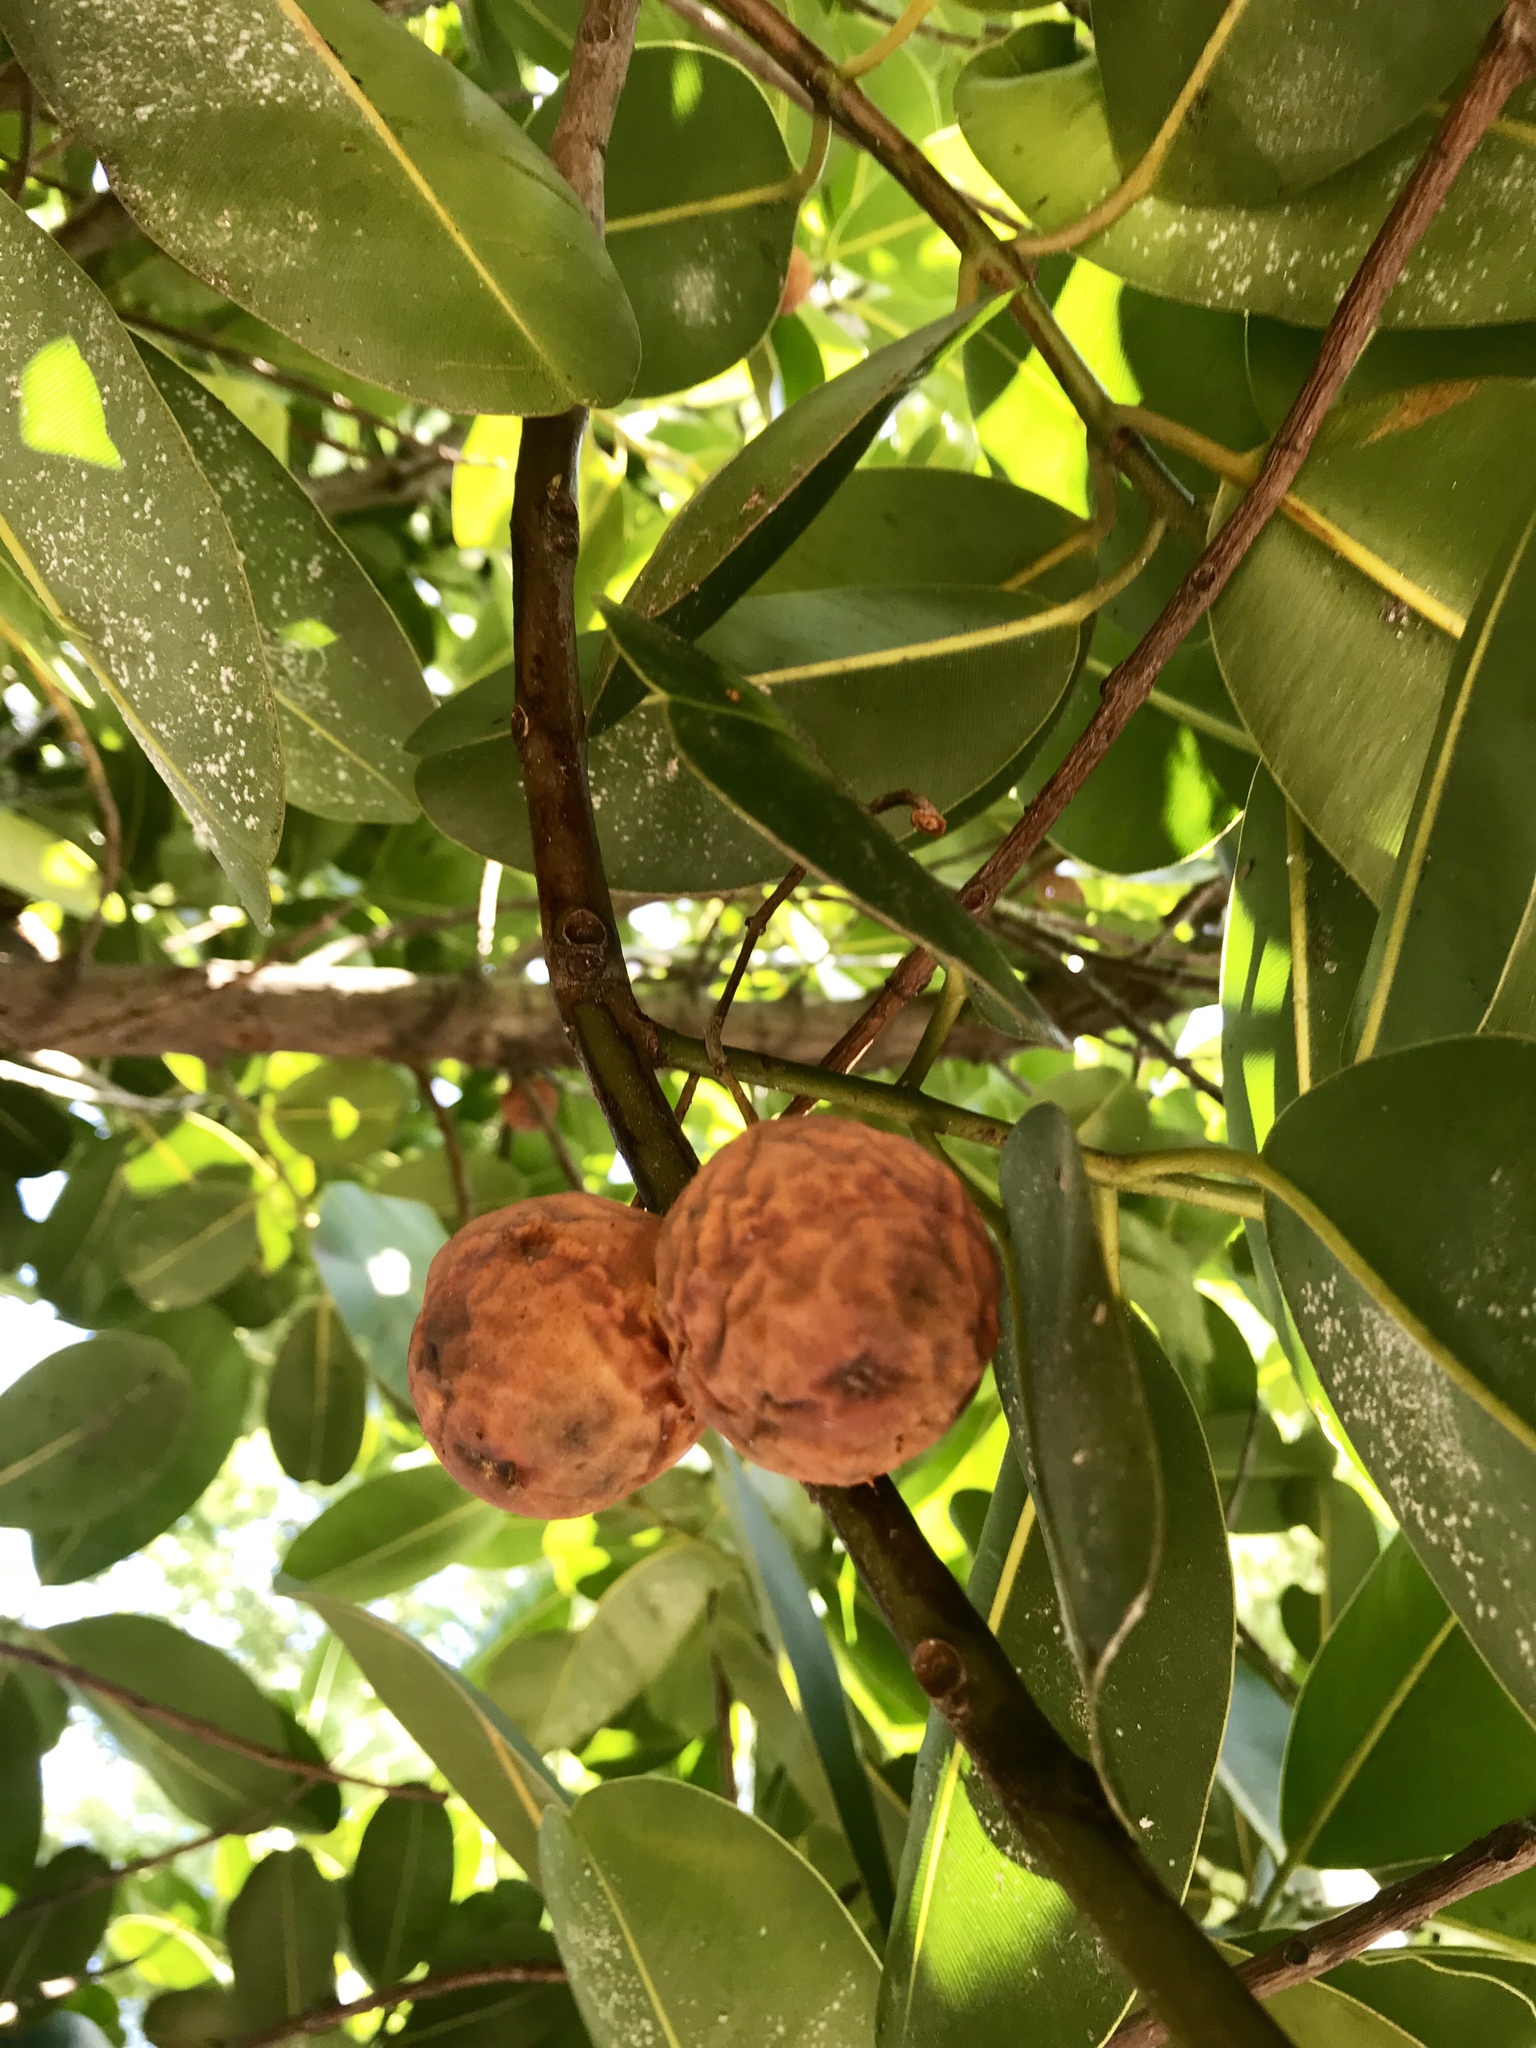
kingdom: Plantae
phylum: Tracheophyta
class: Magnoliopsida
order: Malpighiales
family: Calophyllaceae
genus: Calophyllum
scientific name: Calophyllum inophyllum
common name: Alexandrian laurel
